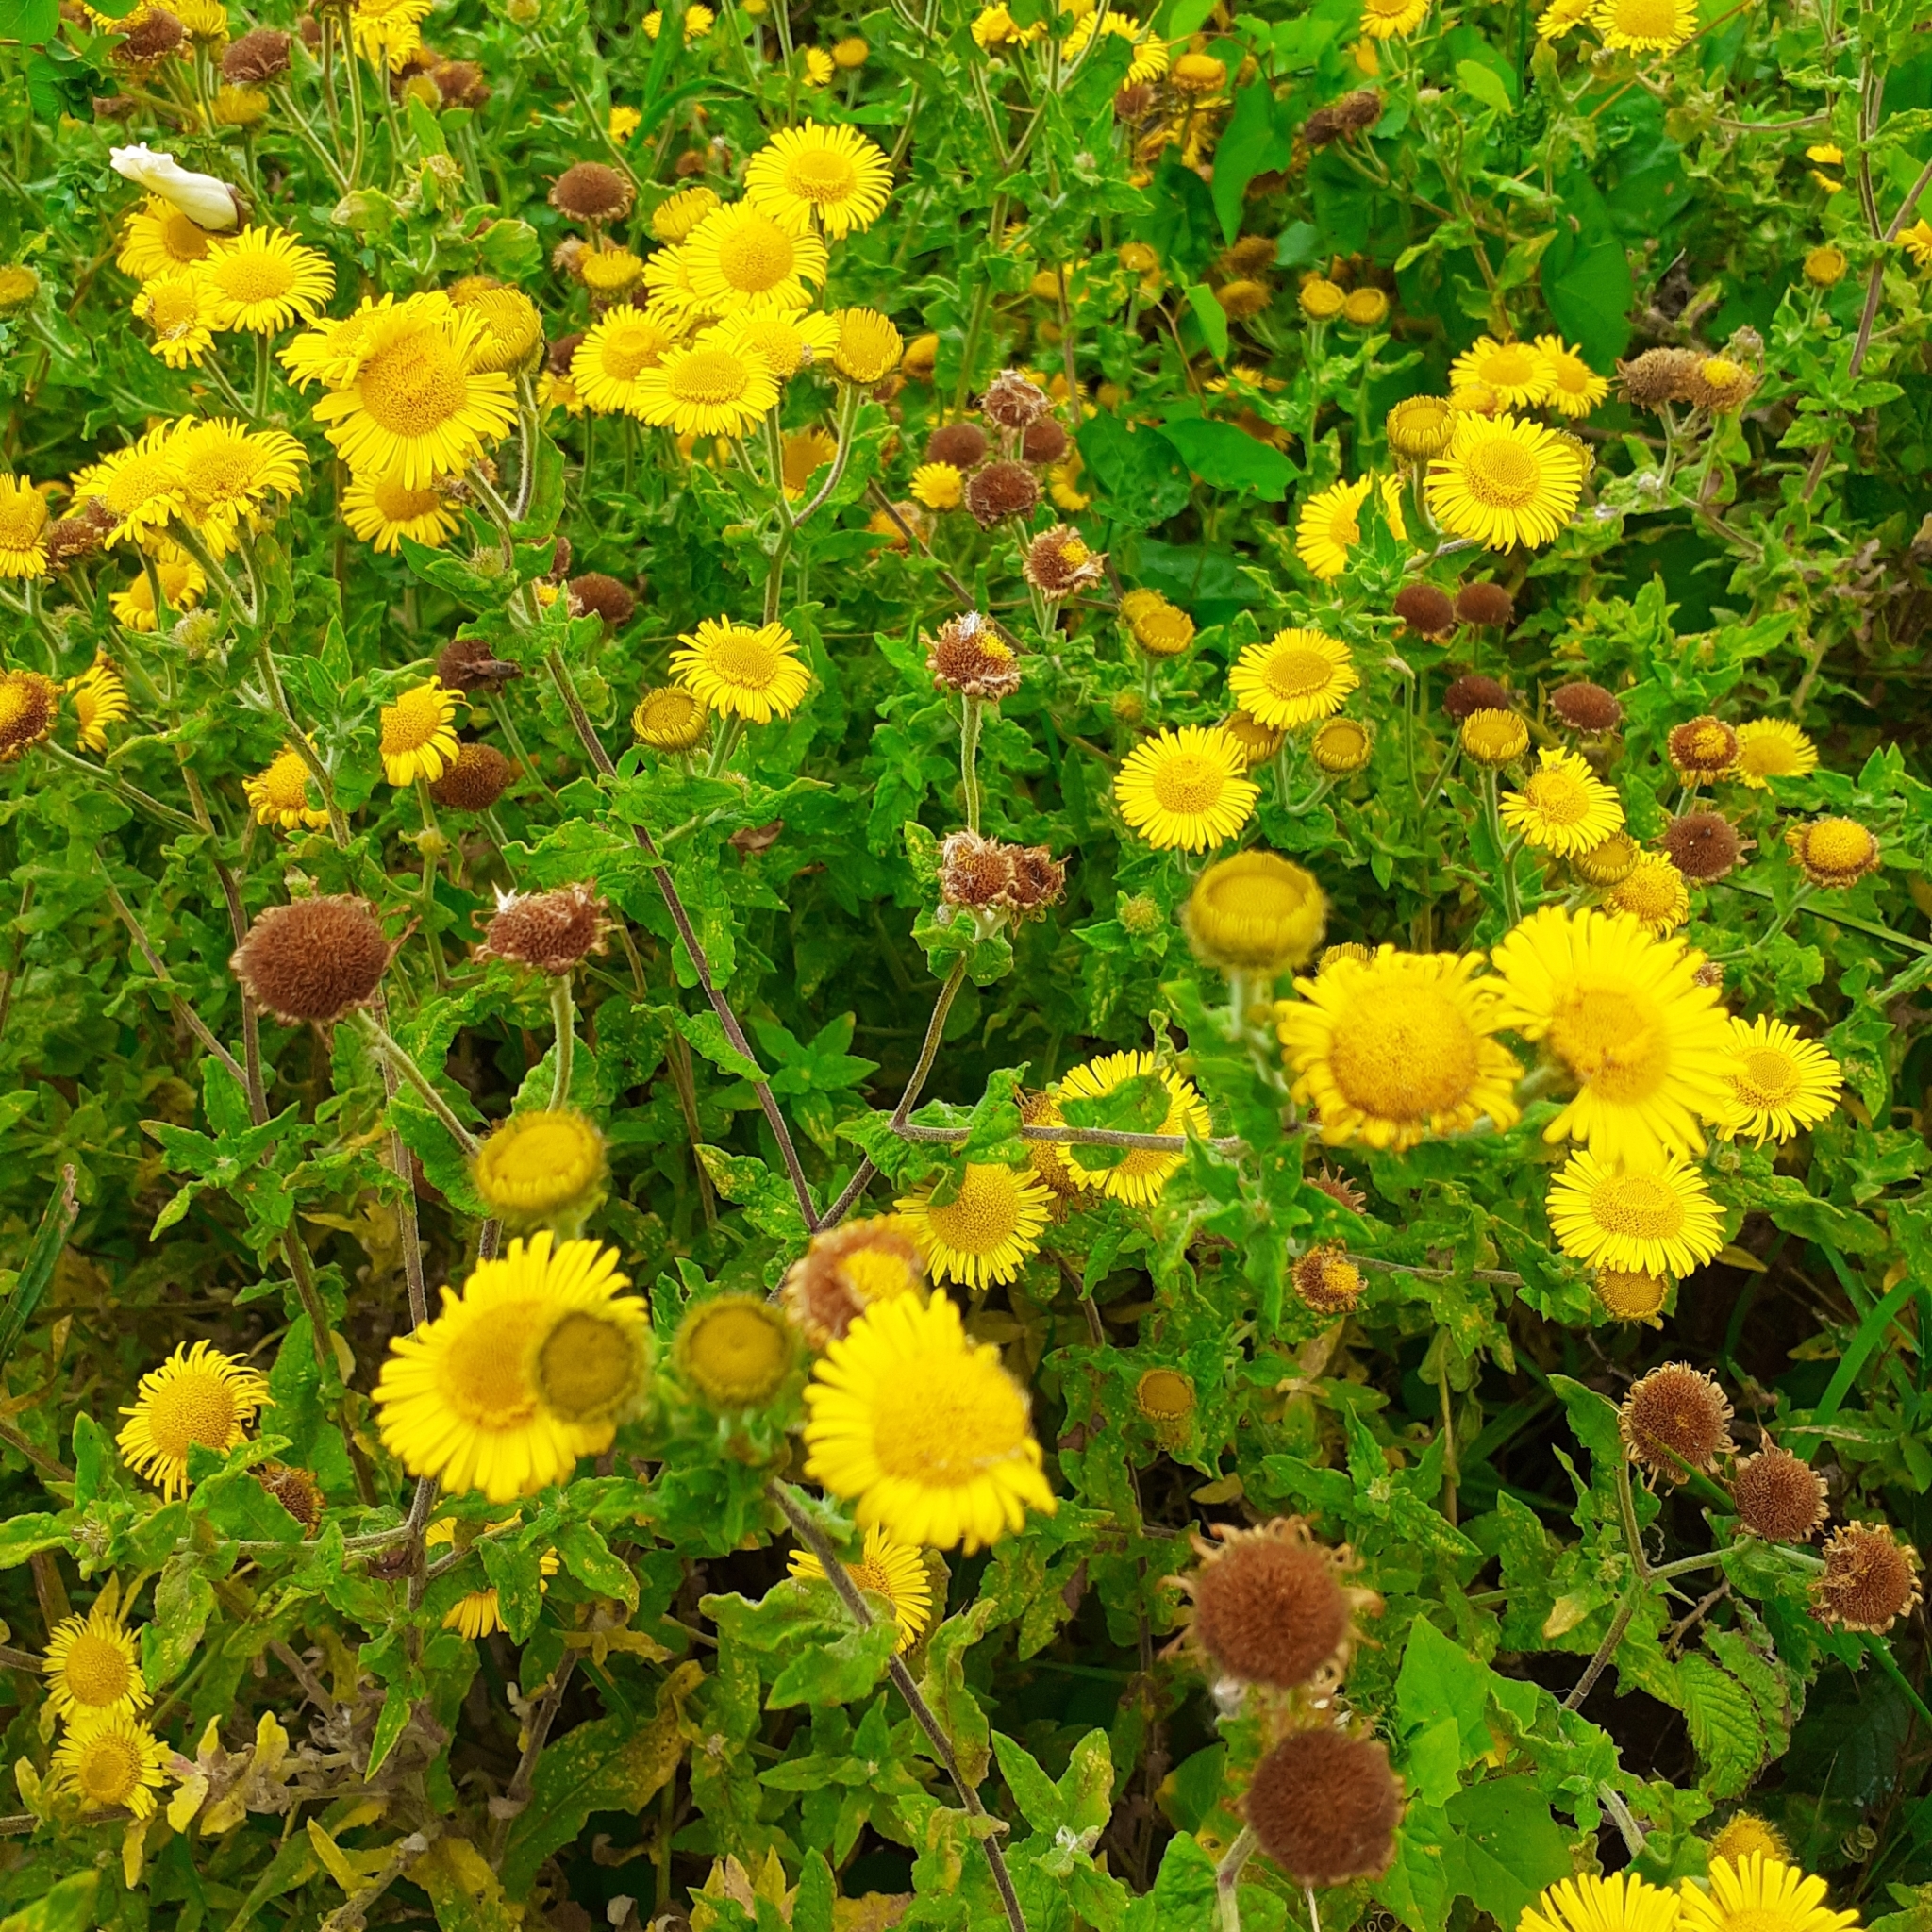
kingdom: Plantae
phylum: Tracheophyta
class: Magnoliopsida
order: Asterales
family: Asteraceae
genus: Pulicaria
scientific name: Pulicaria dysenterica
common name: Common fleabane
